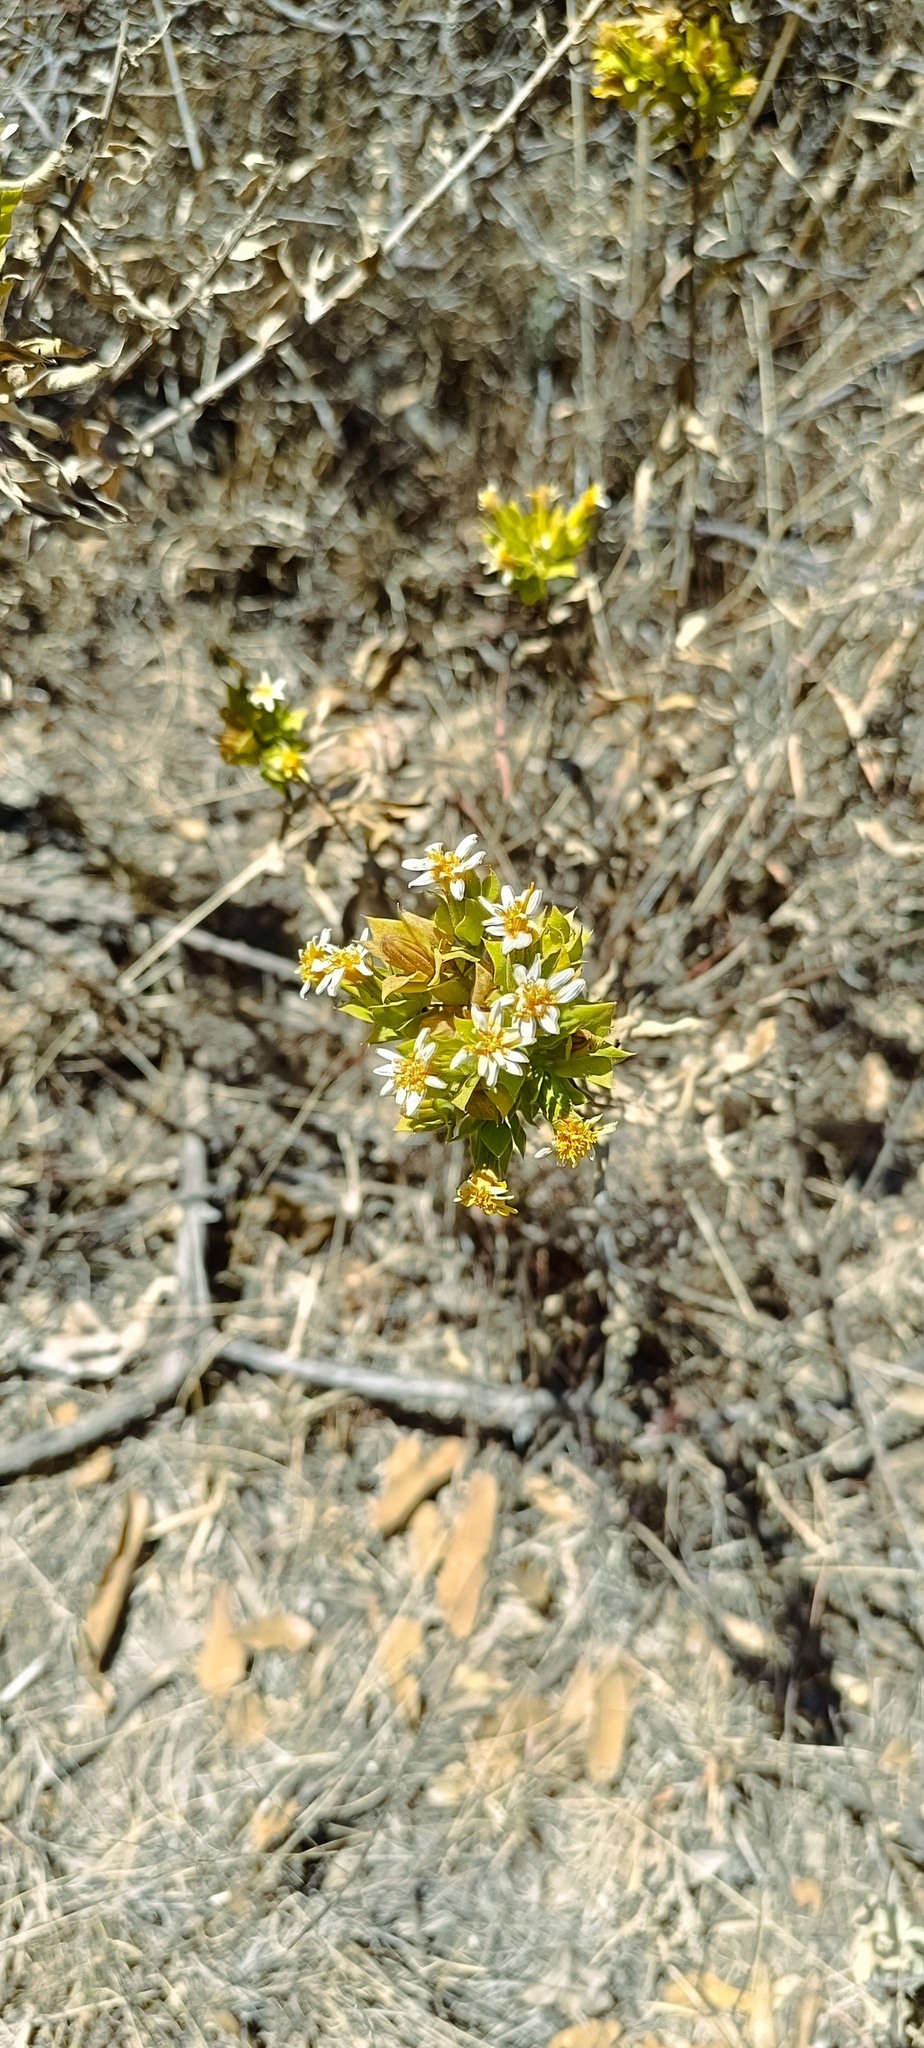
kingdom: Plantae
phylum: Tracheophyta
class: Magnoliopsida
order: Asterales
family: Asteraceae
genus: Trixis
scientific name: Trixis inula
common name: Tropical threefold
